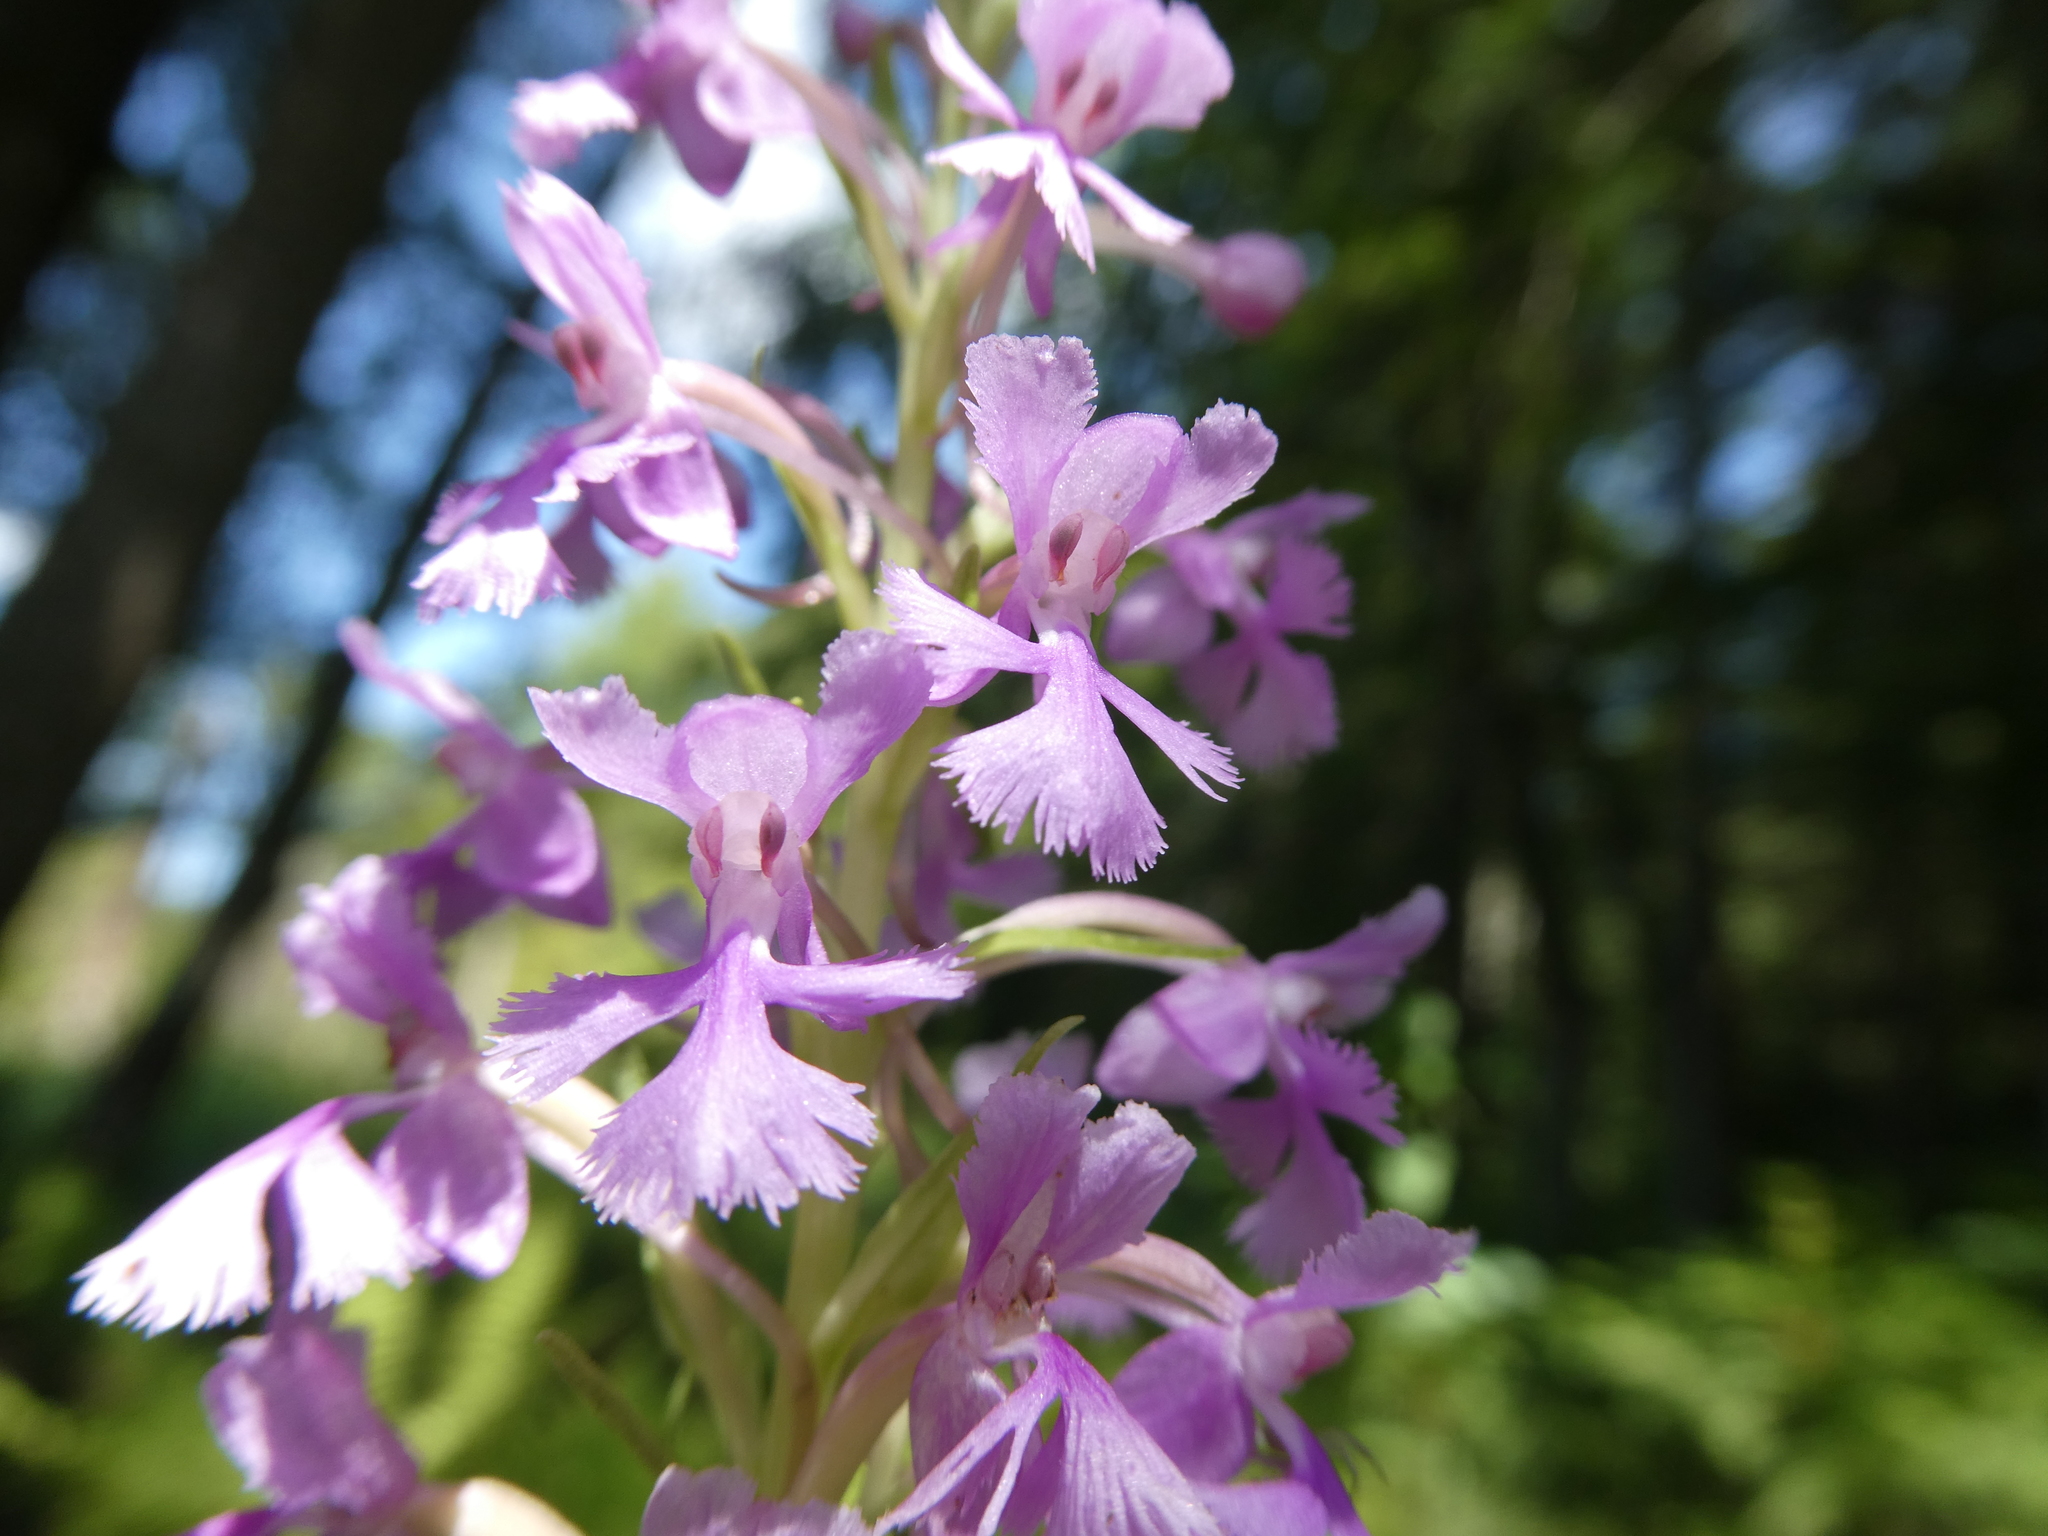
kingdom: Plantae
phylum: Tracheophyta
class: Liliopsida
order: Asparagales
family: Orchidaceae
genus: Platanthera
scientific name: Platanthera psycodes
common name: Lesser purple fringed orchid
